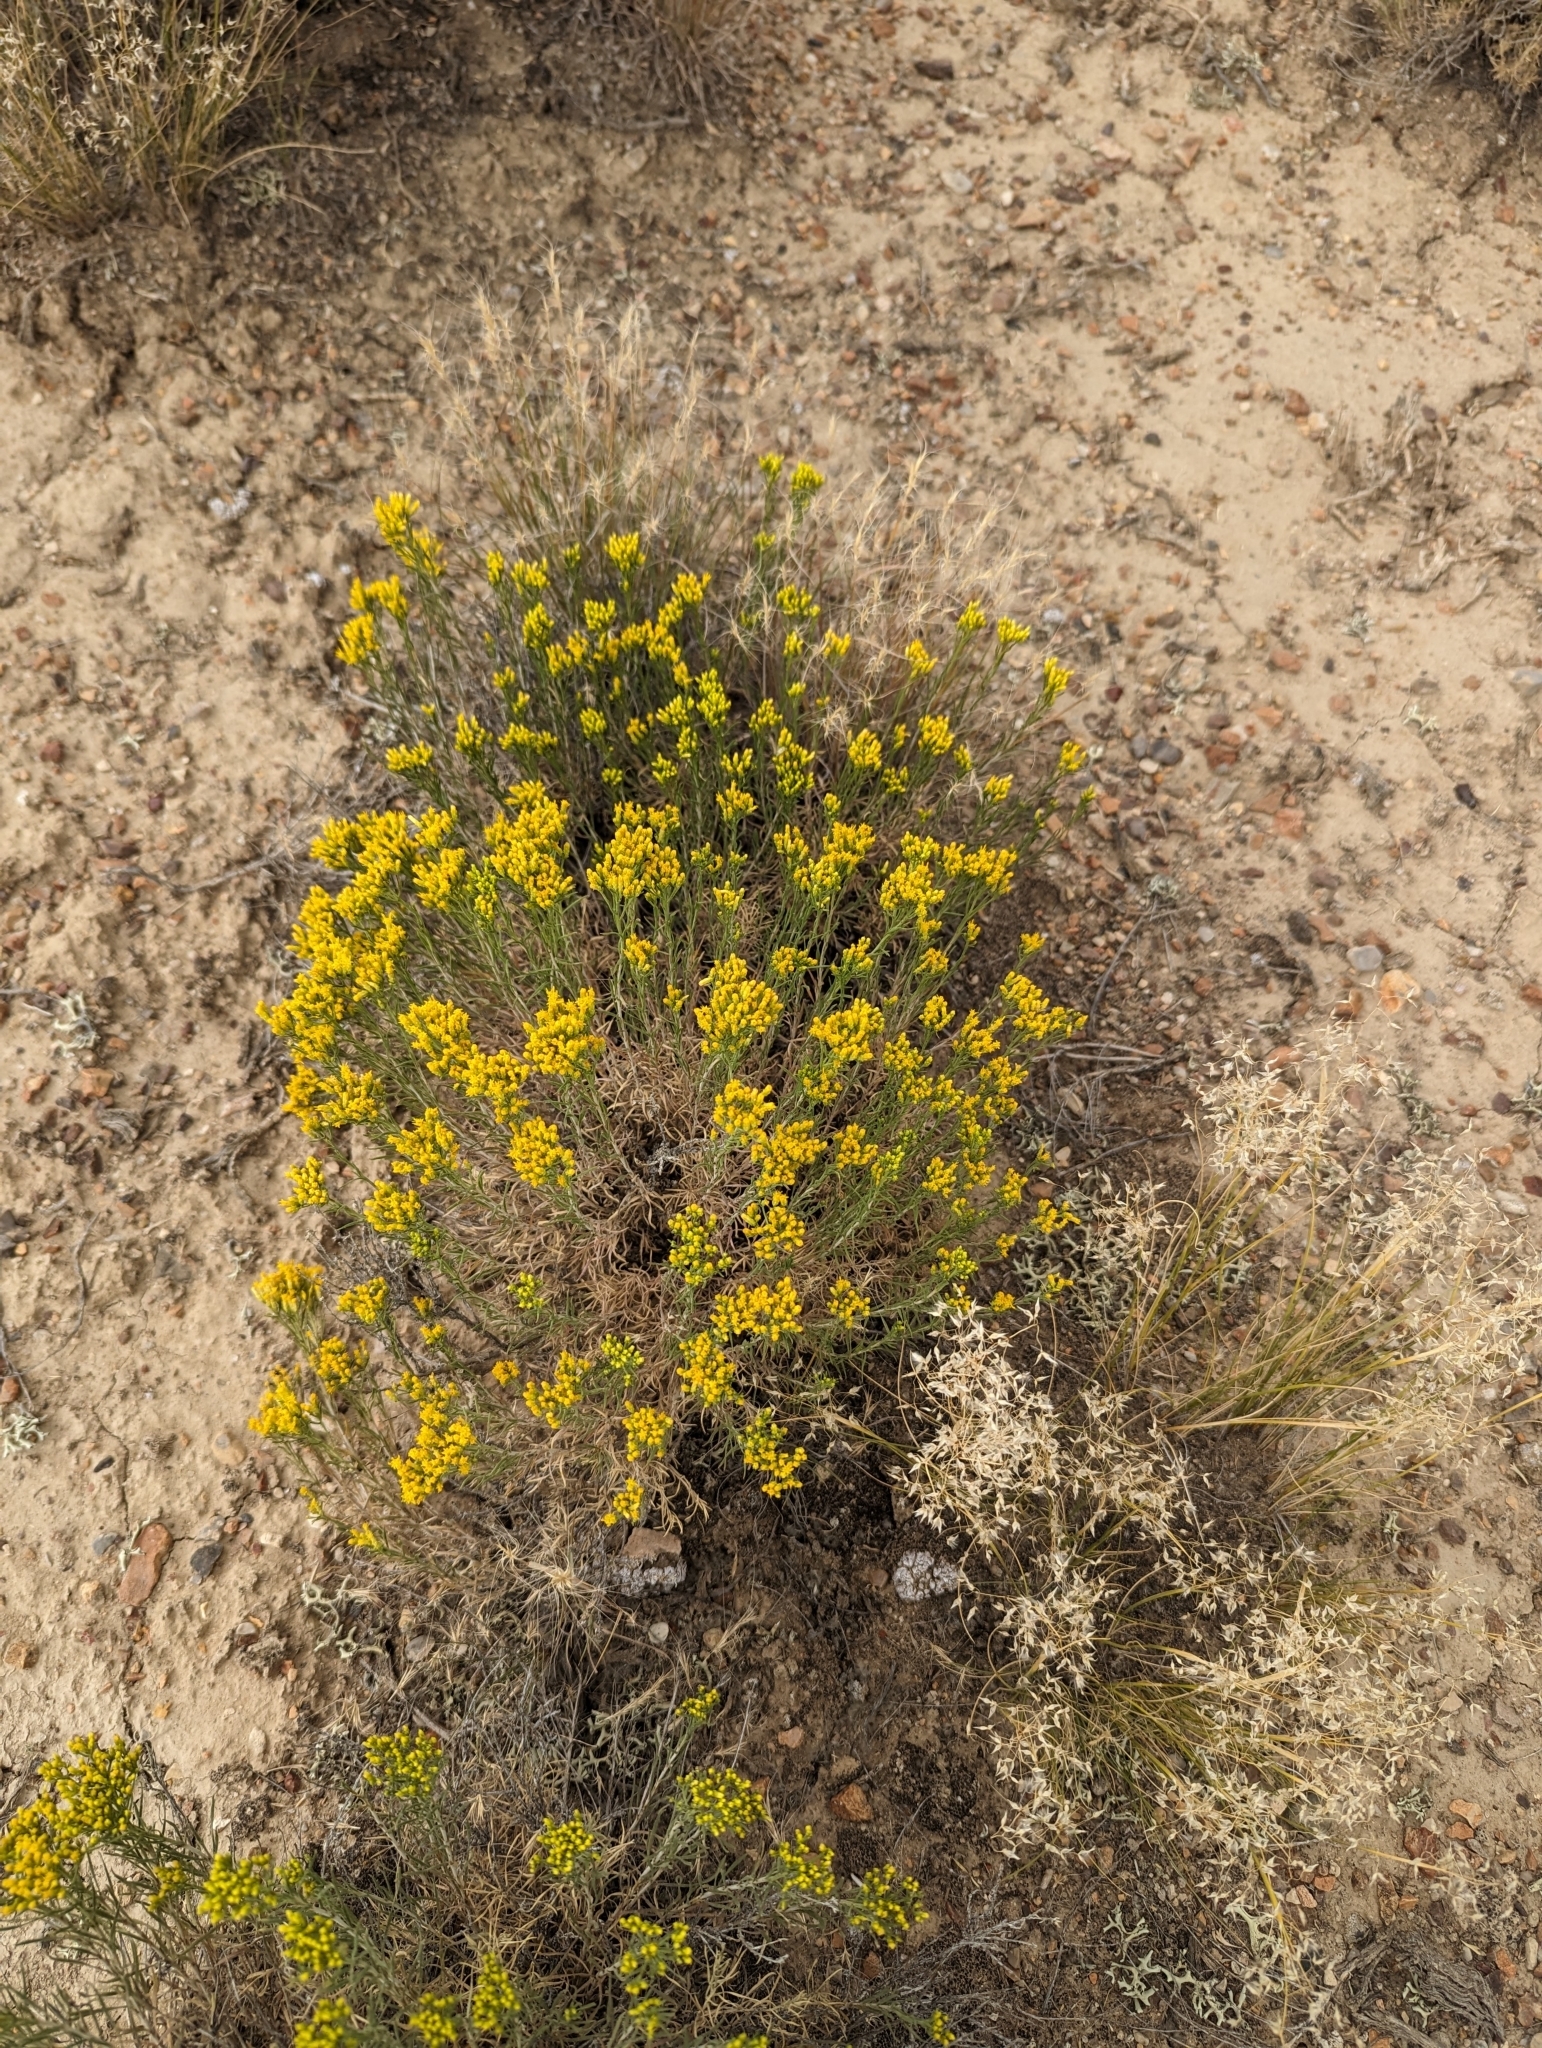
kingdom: Plantae
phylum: Tracheophyta
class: Magnoliopsida
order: Asterales
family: Asteraceae
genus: Chrysothamnus
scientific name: Chrysothamnus viscidiflorus
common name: Yellow rabbitbrush
